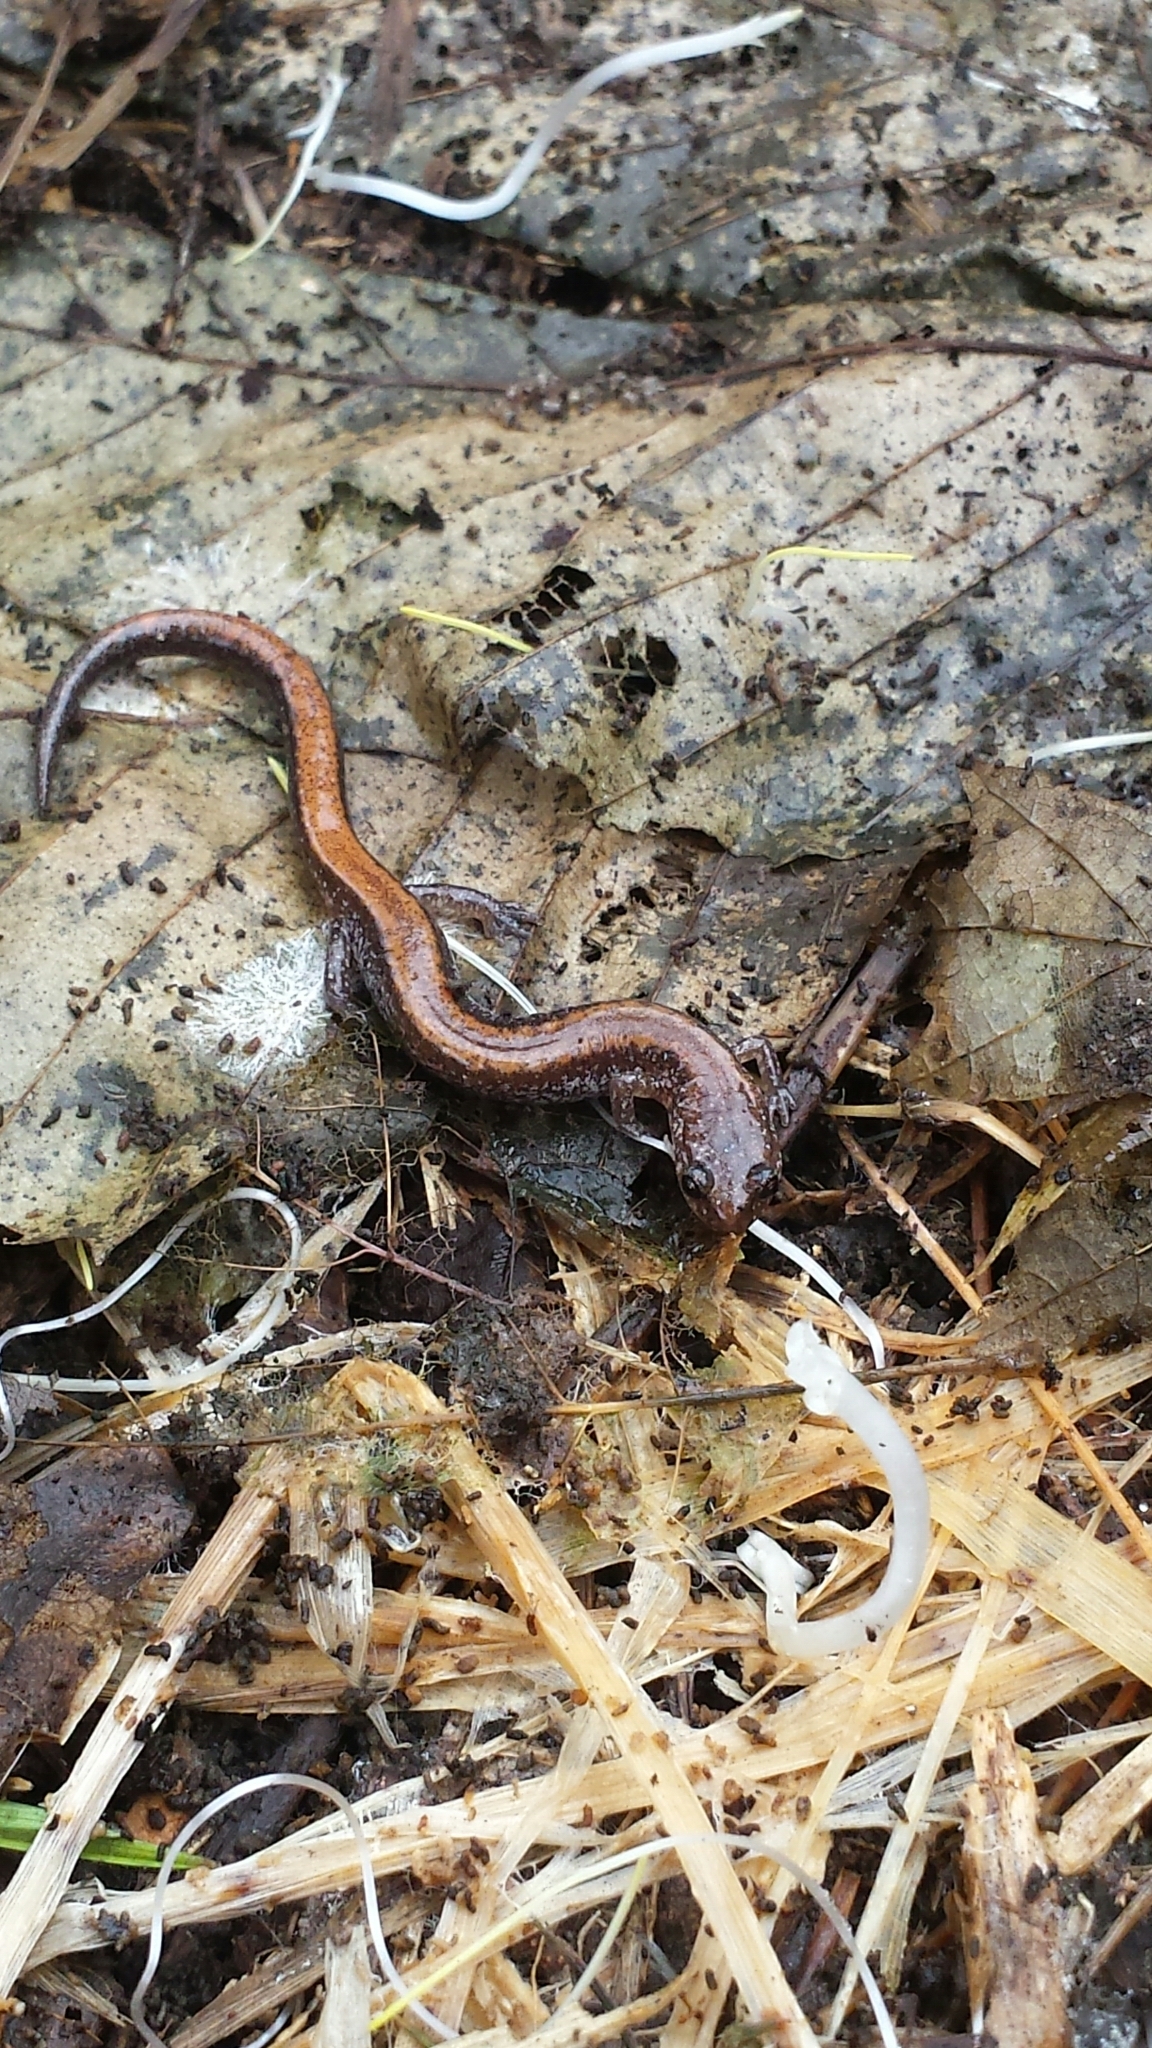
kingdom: Animalia
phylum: Chordata
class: Amphibia
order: Caudata
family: Plethodontidae
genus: Plethodon
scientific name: Plethodon cinereus
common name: Redback salamander
